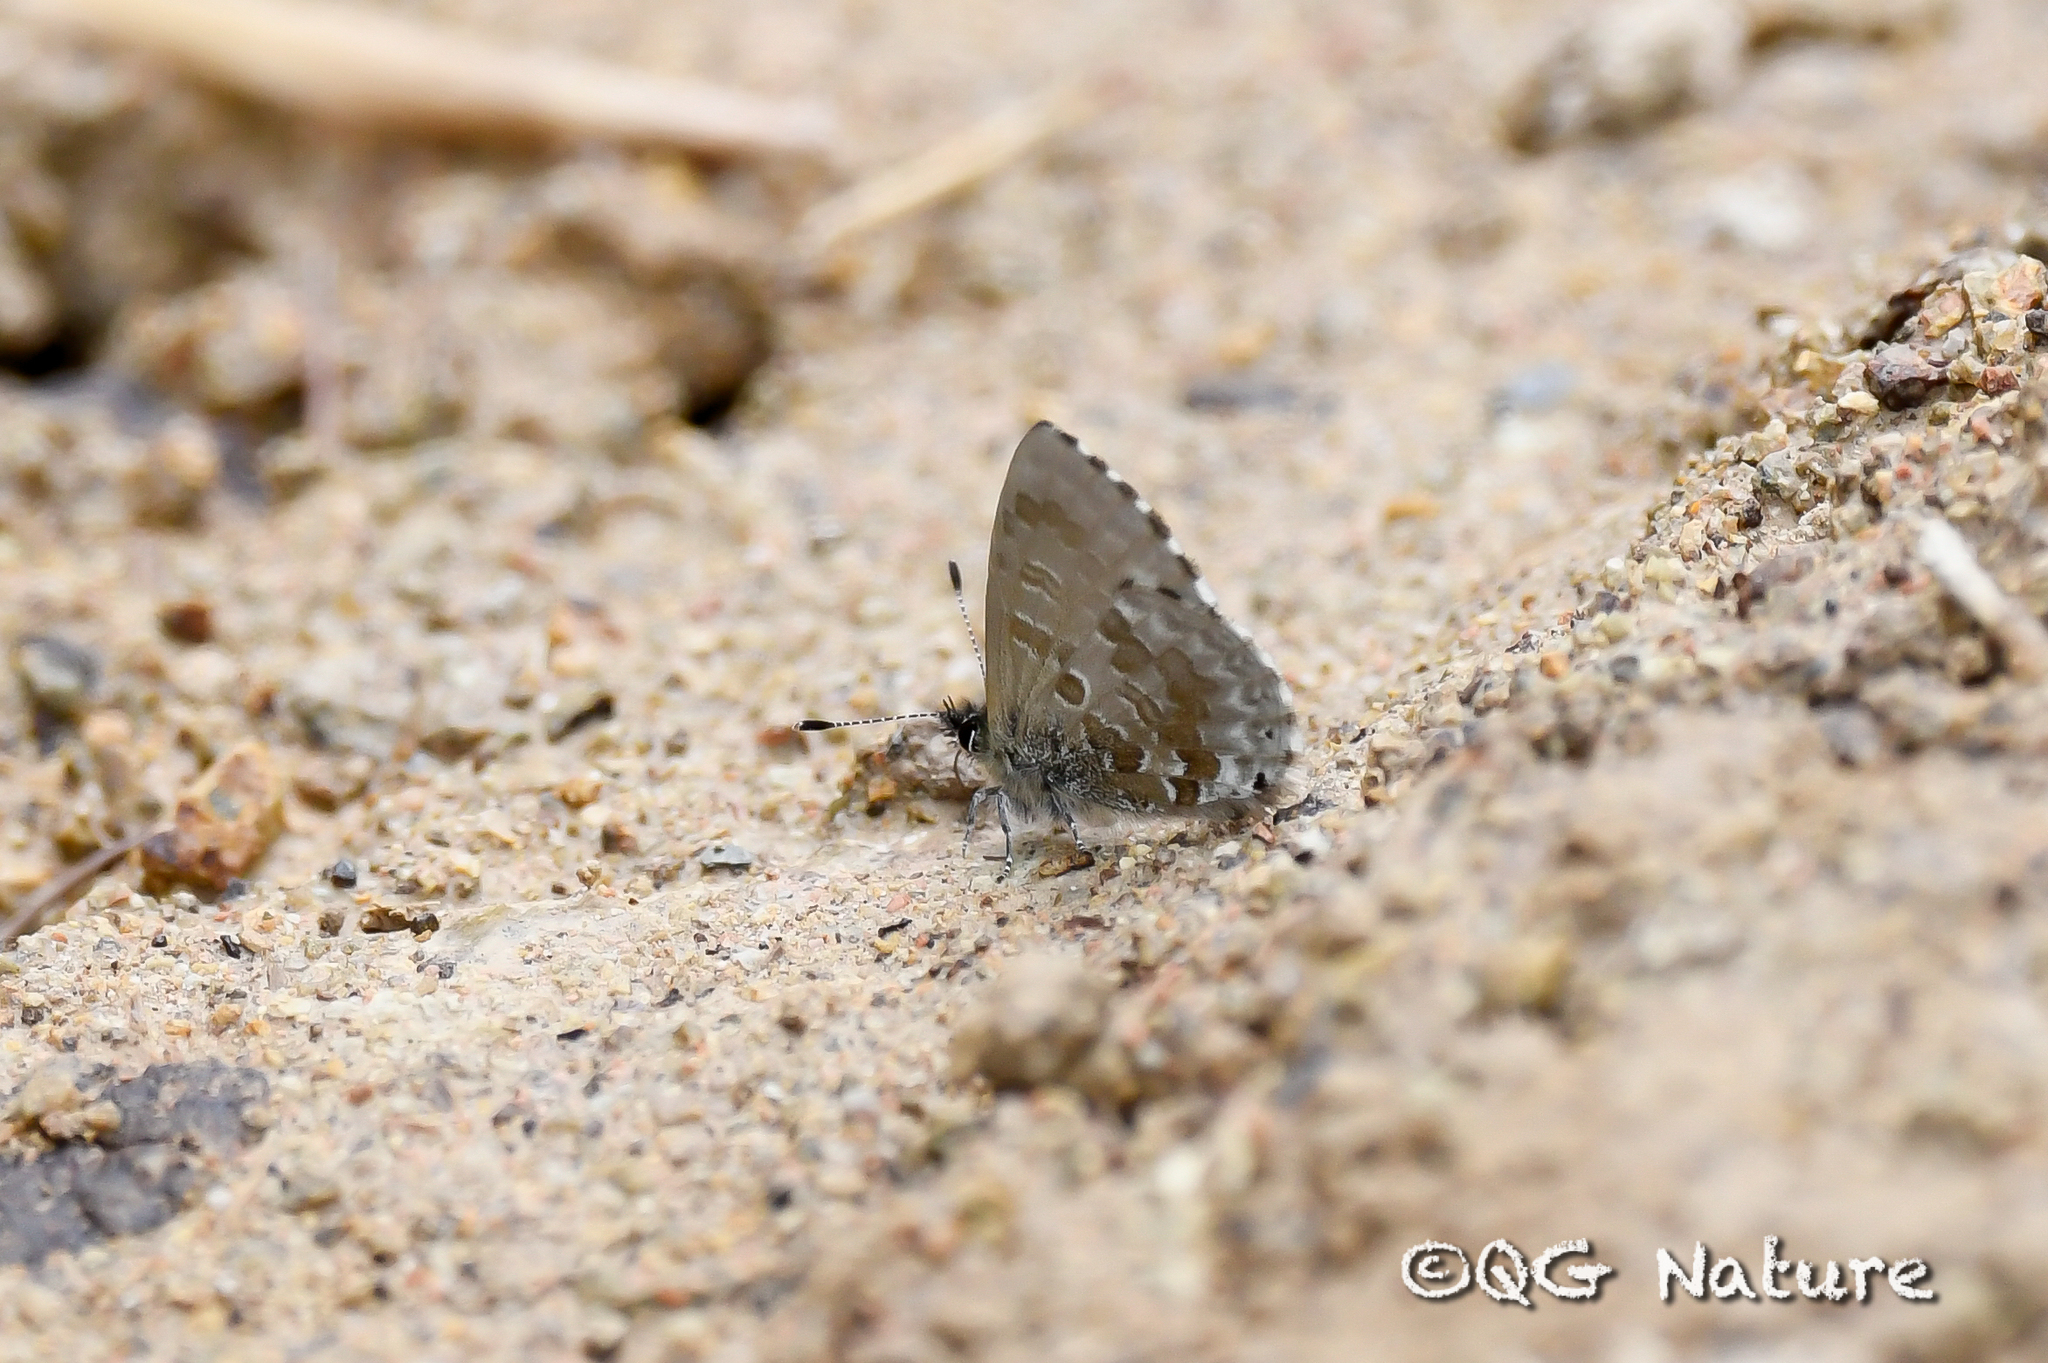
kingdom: Animalia
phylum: Arthropoda
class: Insecta
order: Lepidoptera
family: Lycaenidae
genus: Orthomiella
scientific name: Orthomiella pontis
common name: Straightwing blue
